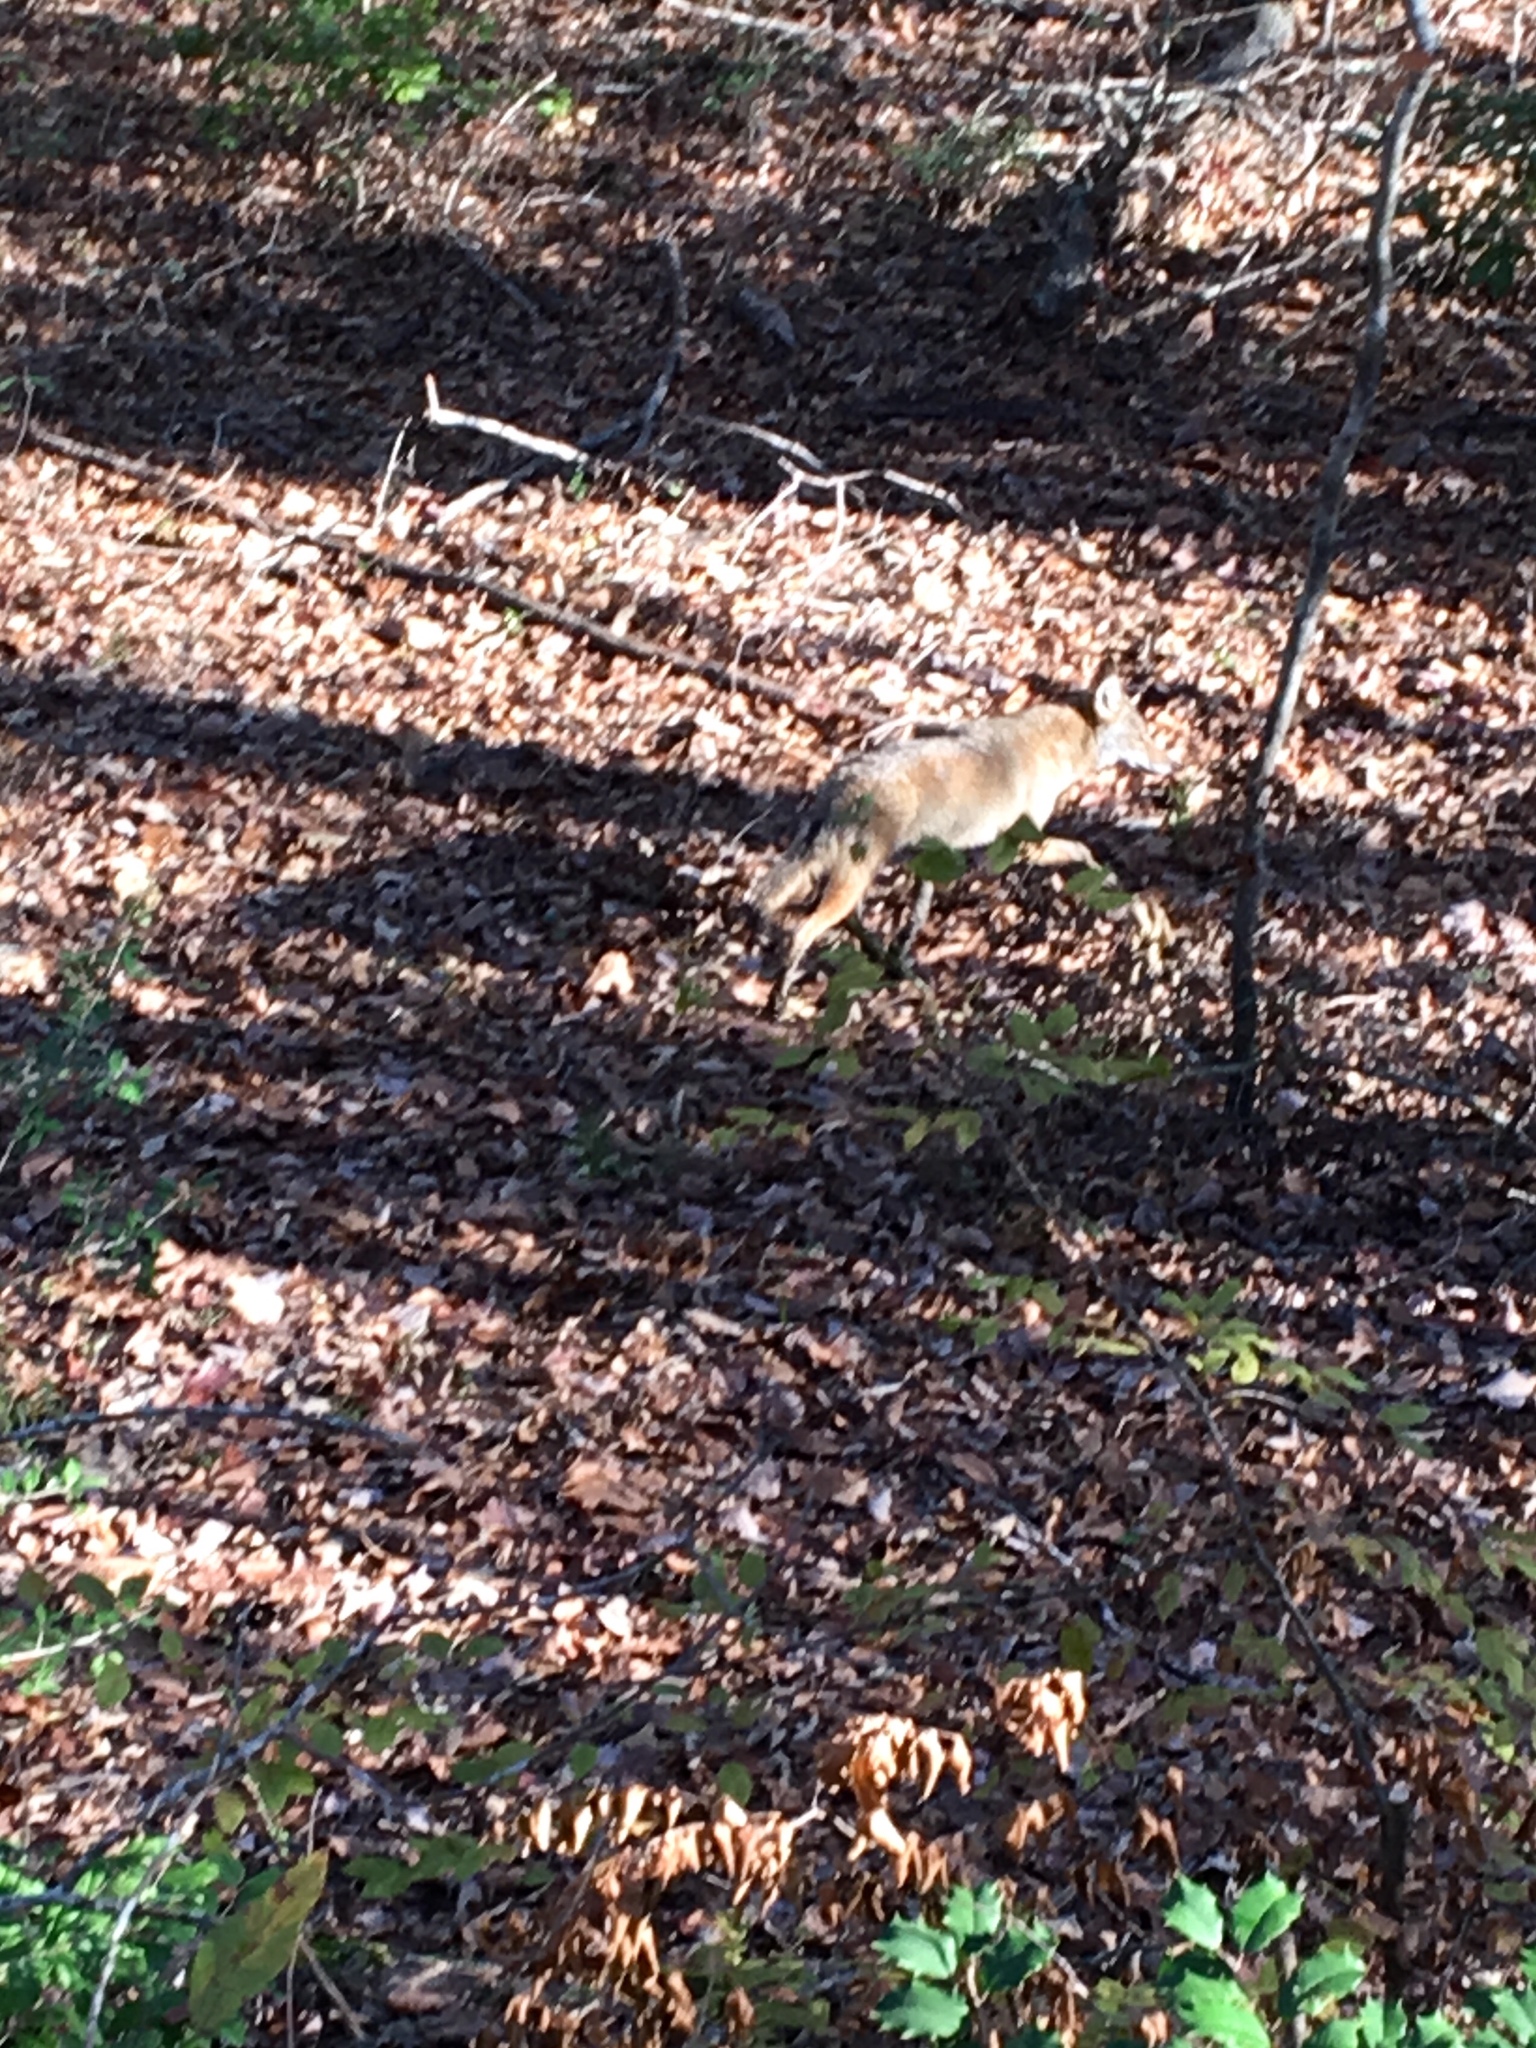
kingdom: Animalia
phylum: Chordata
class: Mammalia
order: Carnivora
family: Canidae
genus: Canis
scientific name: Canis latrans
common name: Coyote
